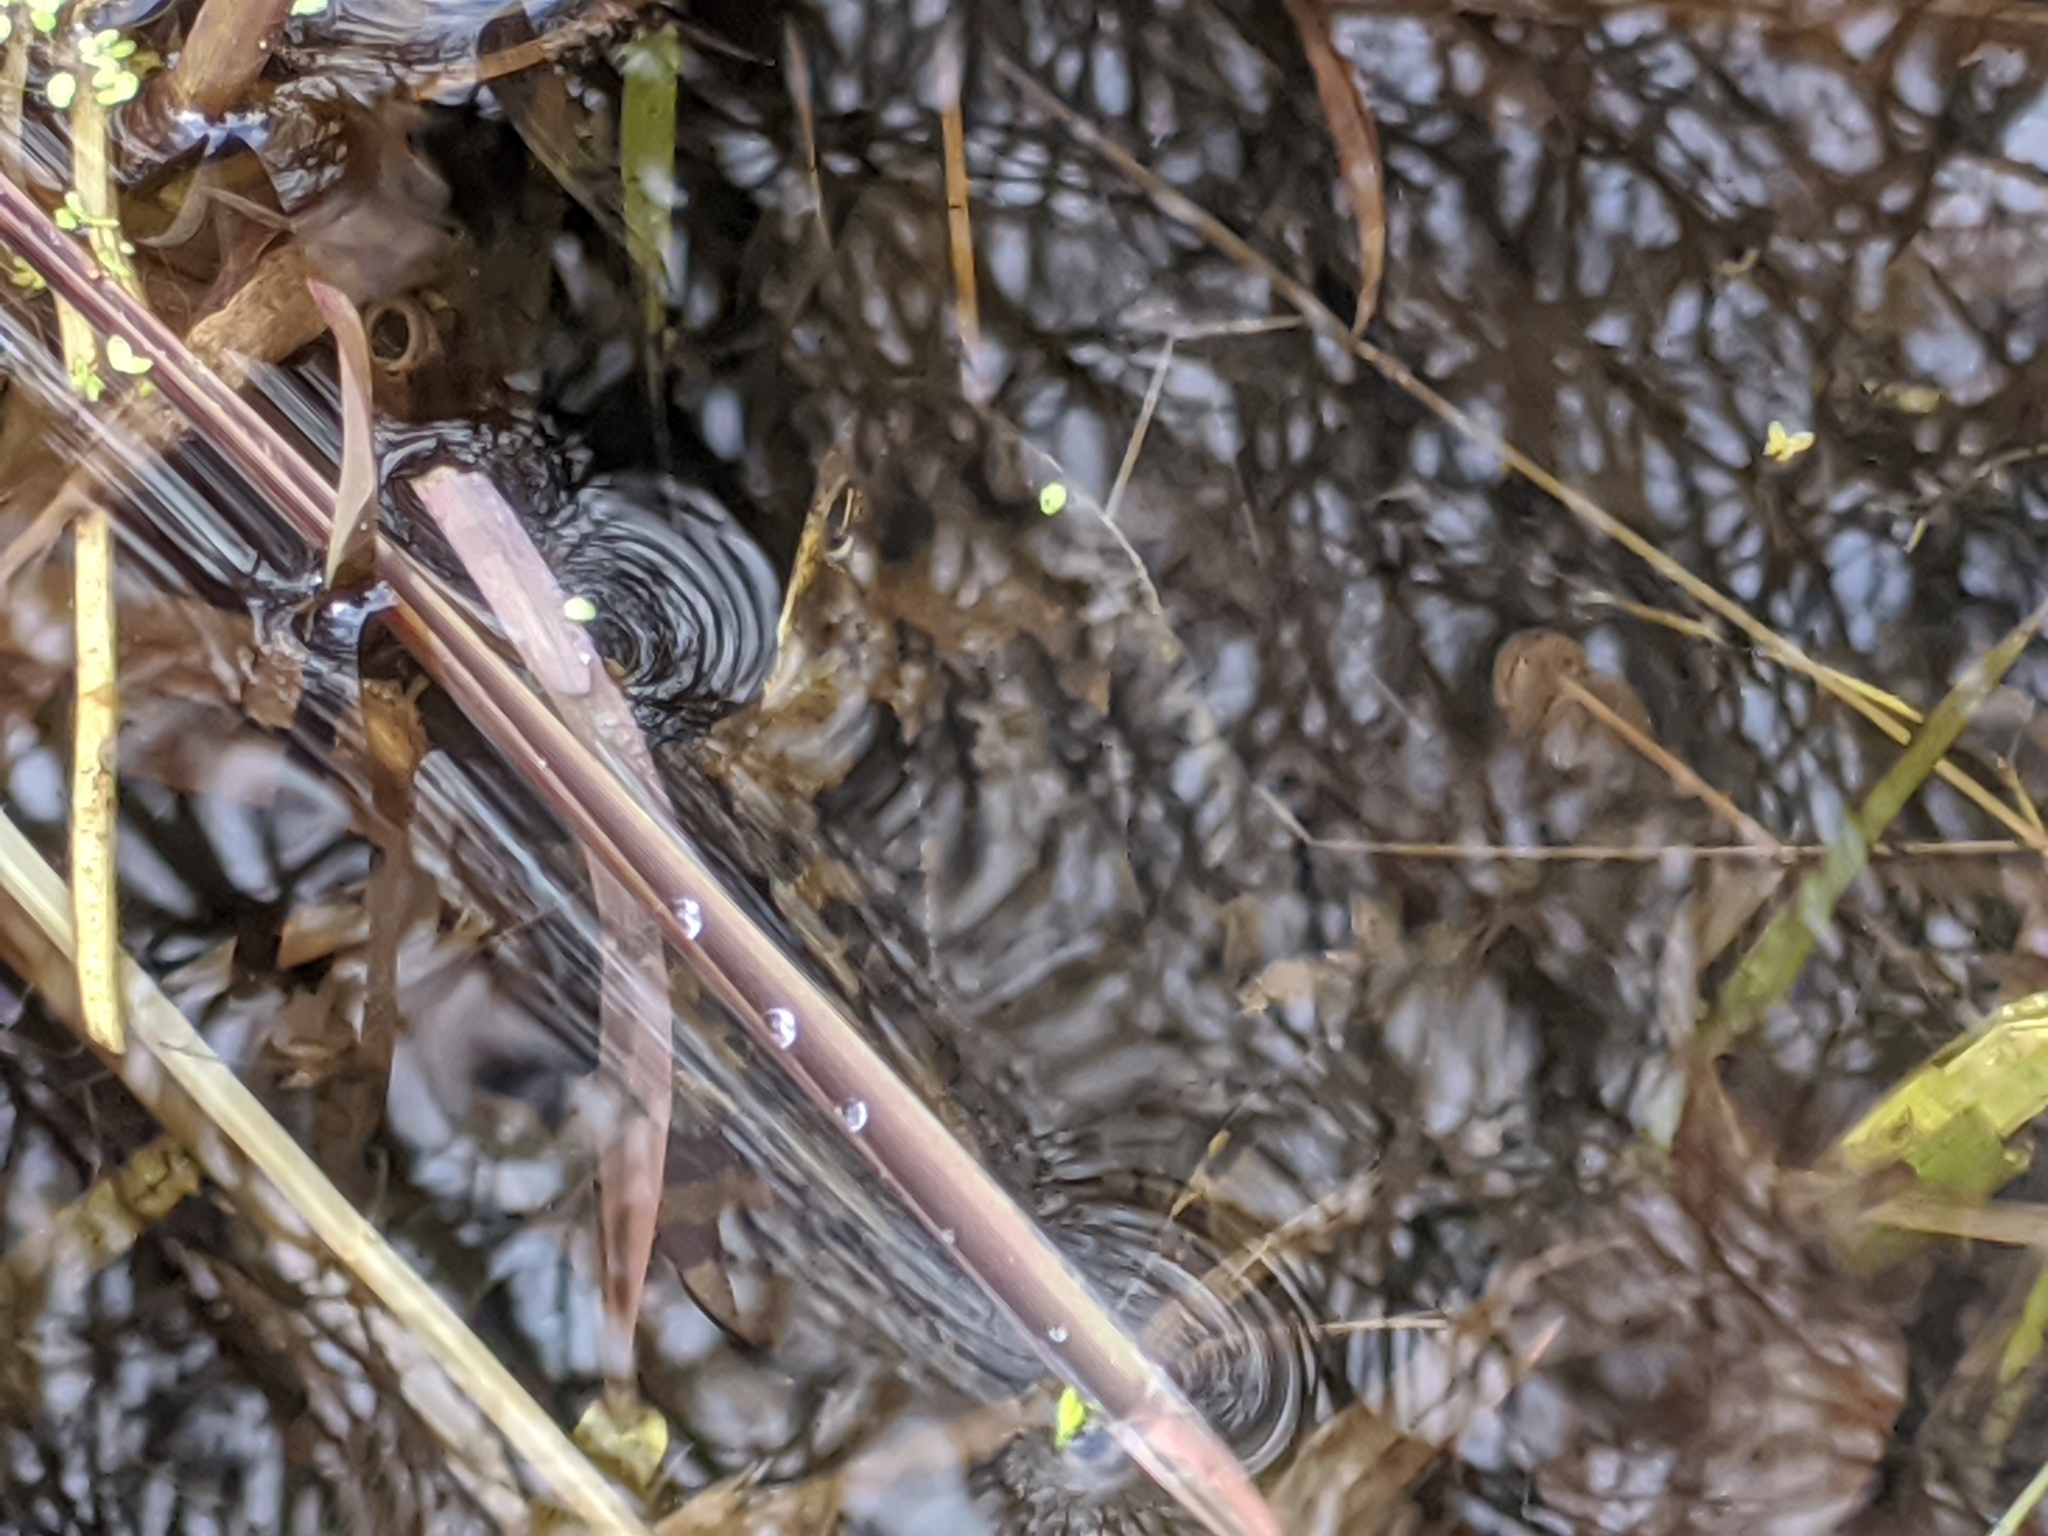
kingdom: Animalia
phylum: Chordata
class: Amphibia
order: Anura
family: Ranidae
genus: Rana
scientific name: Rana temporaria
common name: Common frog
